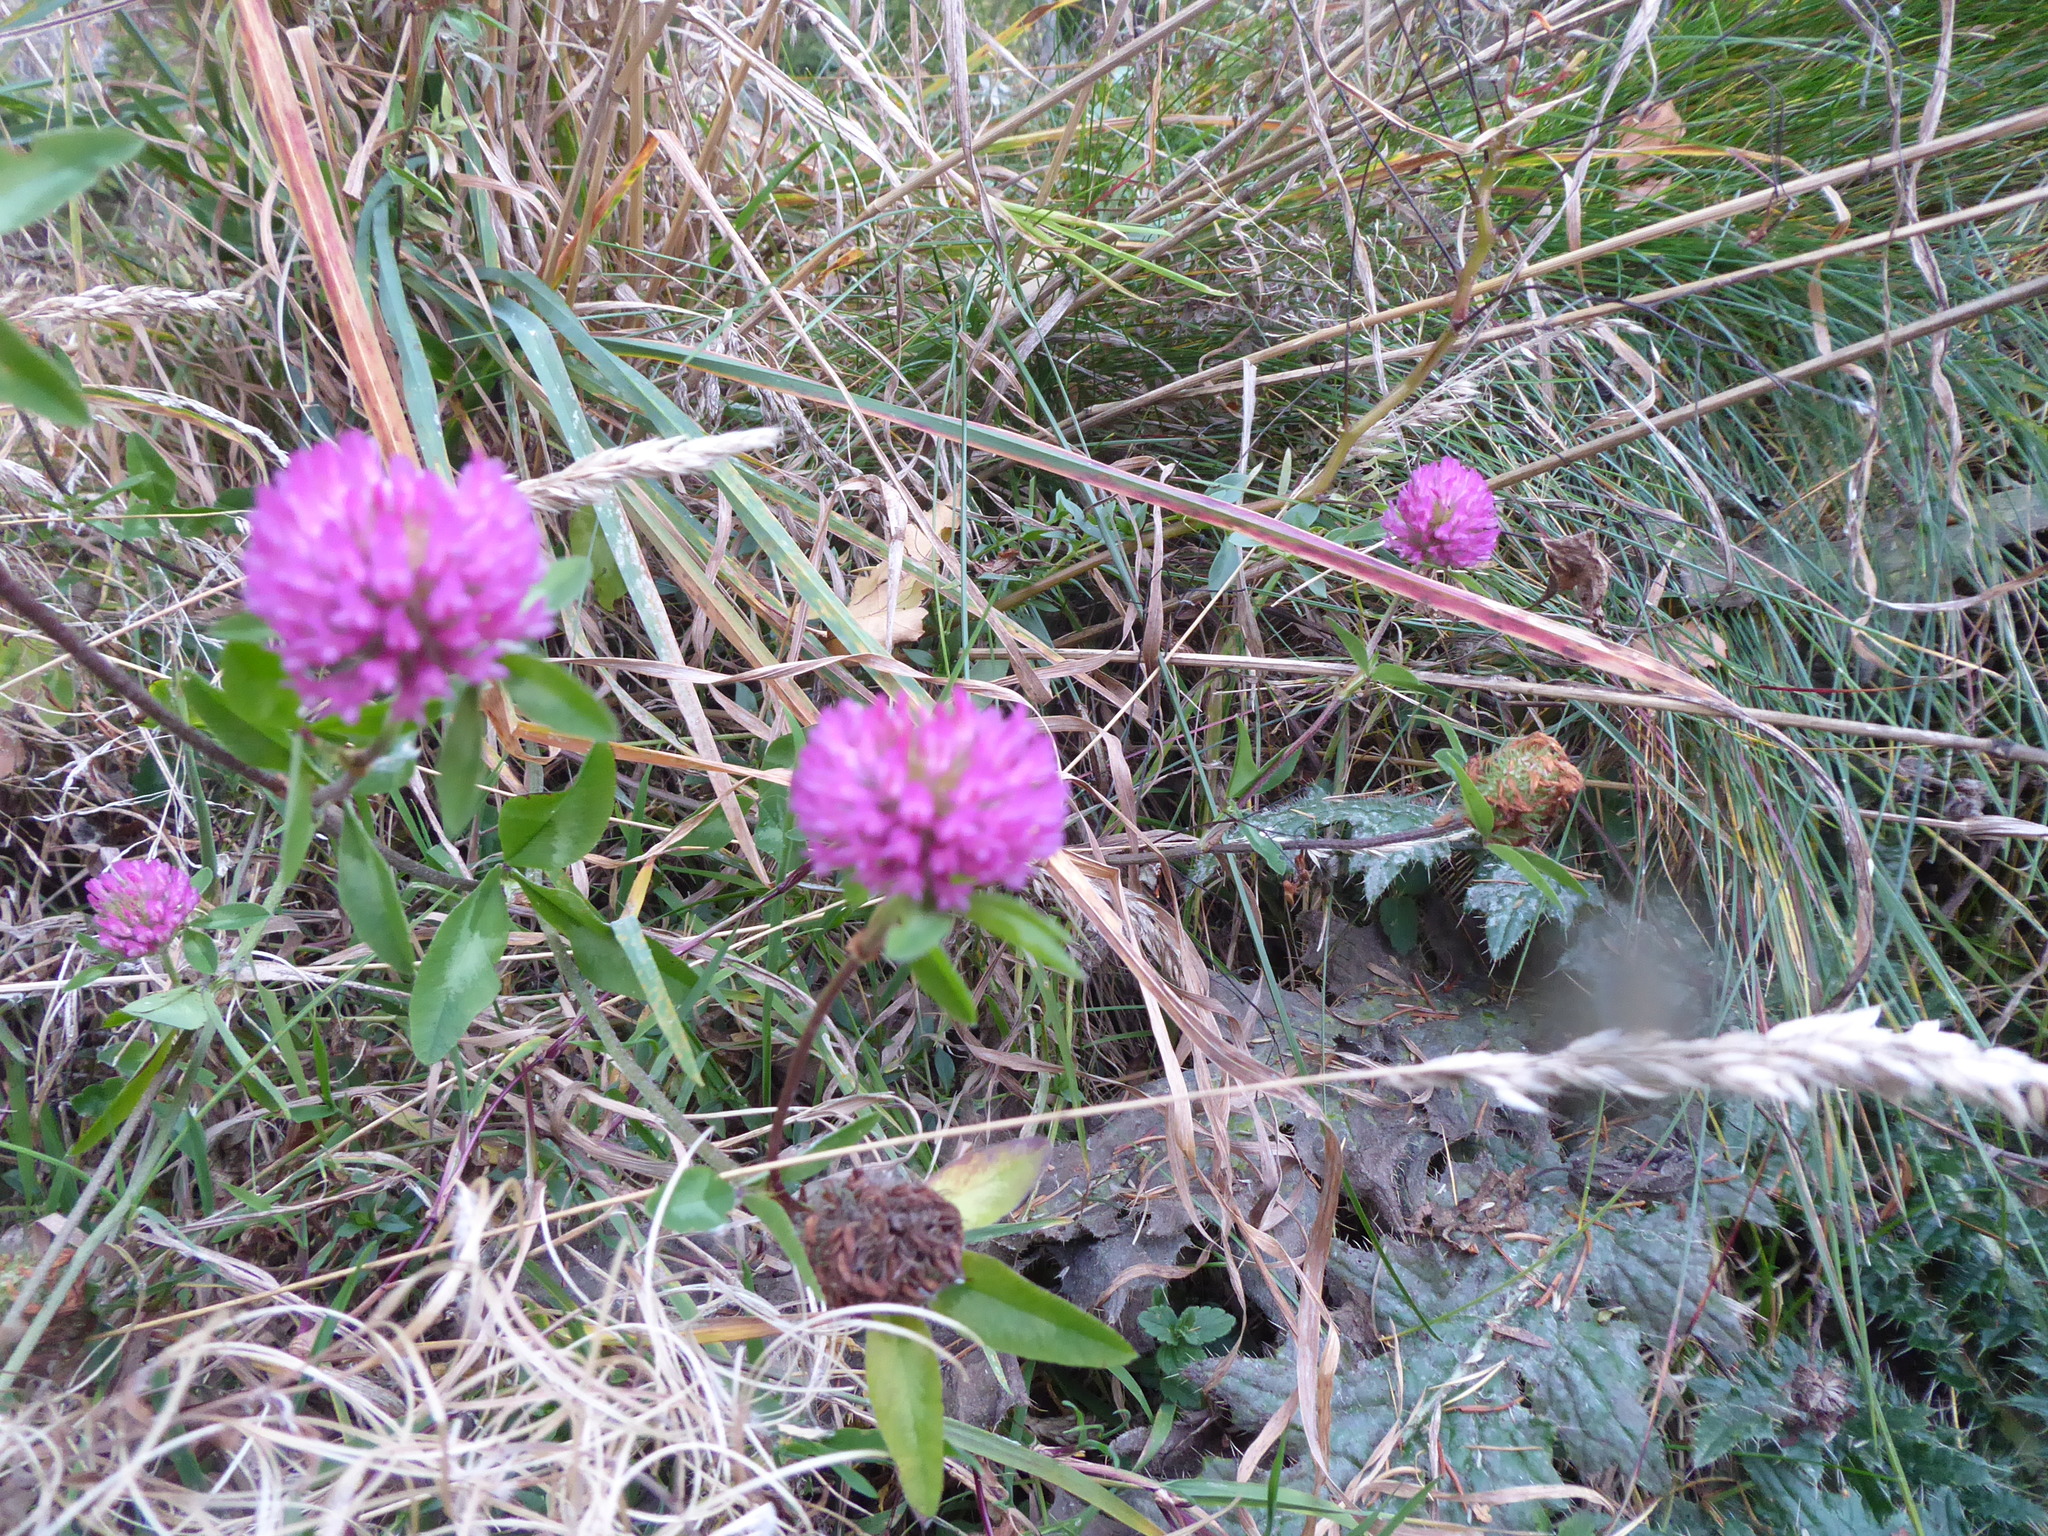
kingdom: Plantae
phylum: Tracheophyta
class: Magnoliopsida
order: Fabales
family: Fabaceae
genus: Trifolium
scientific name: Trifolium pratense
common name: Red clover
